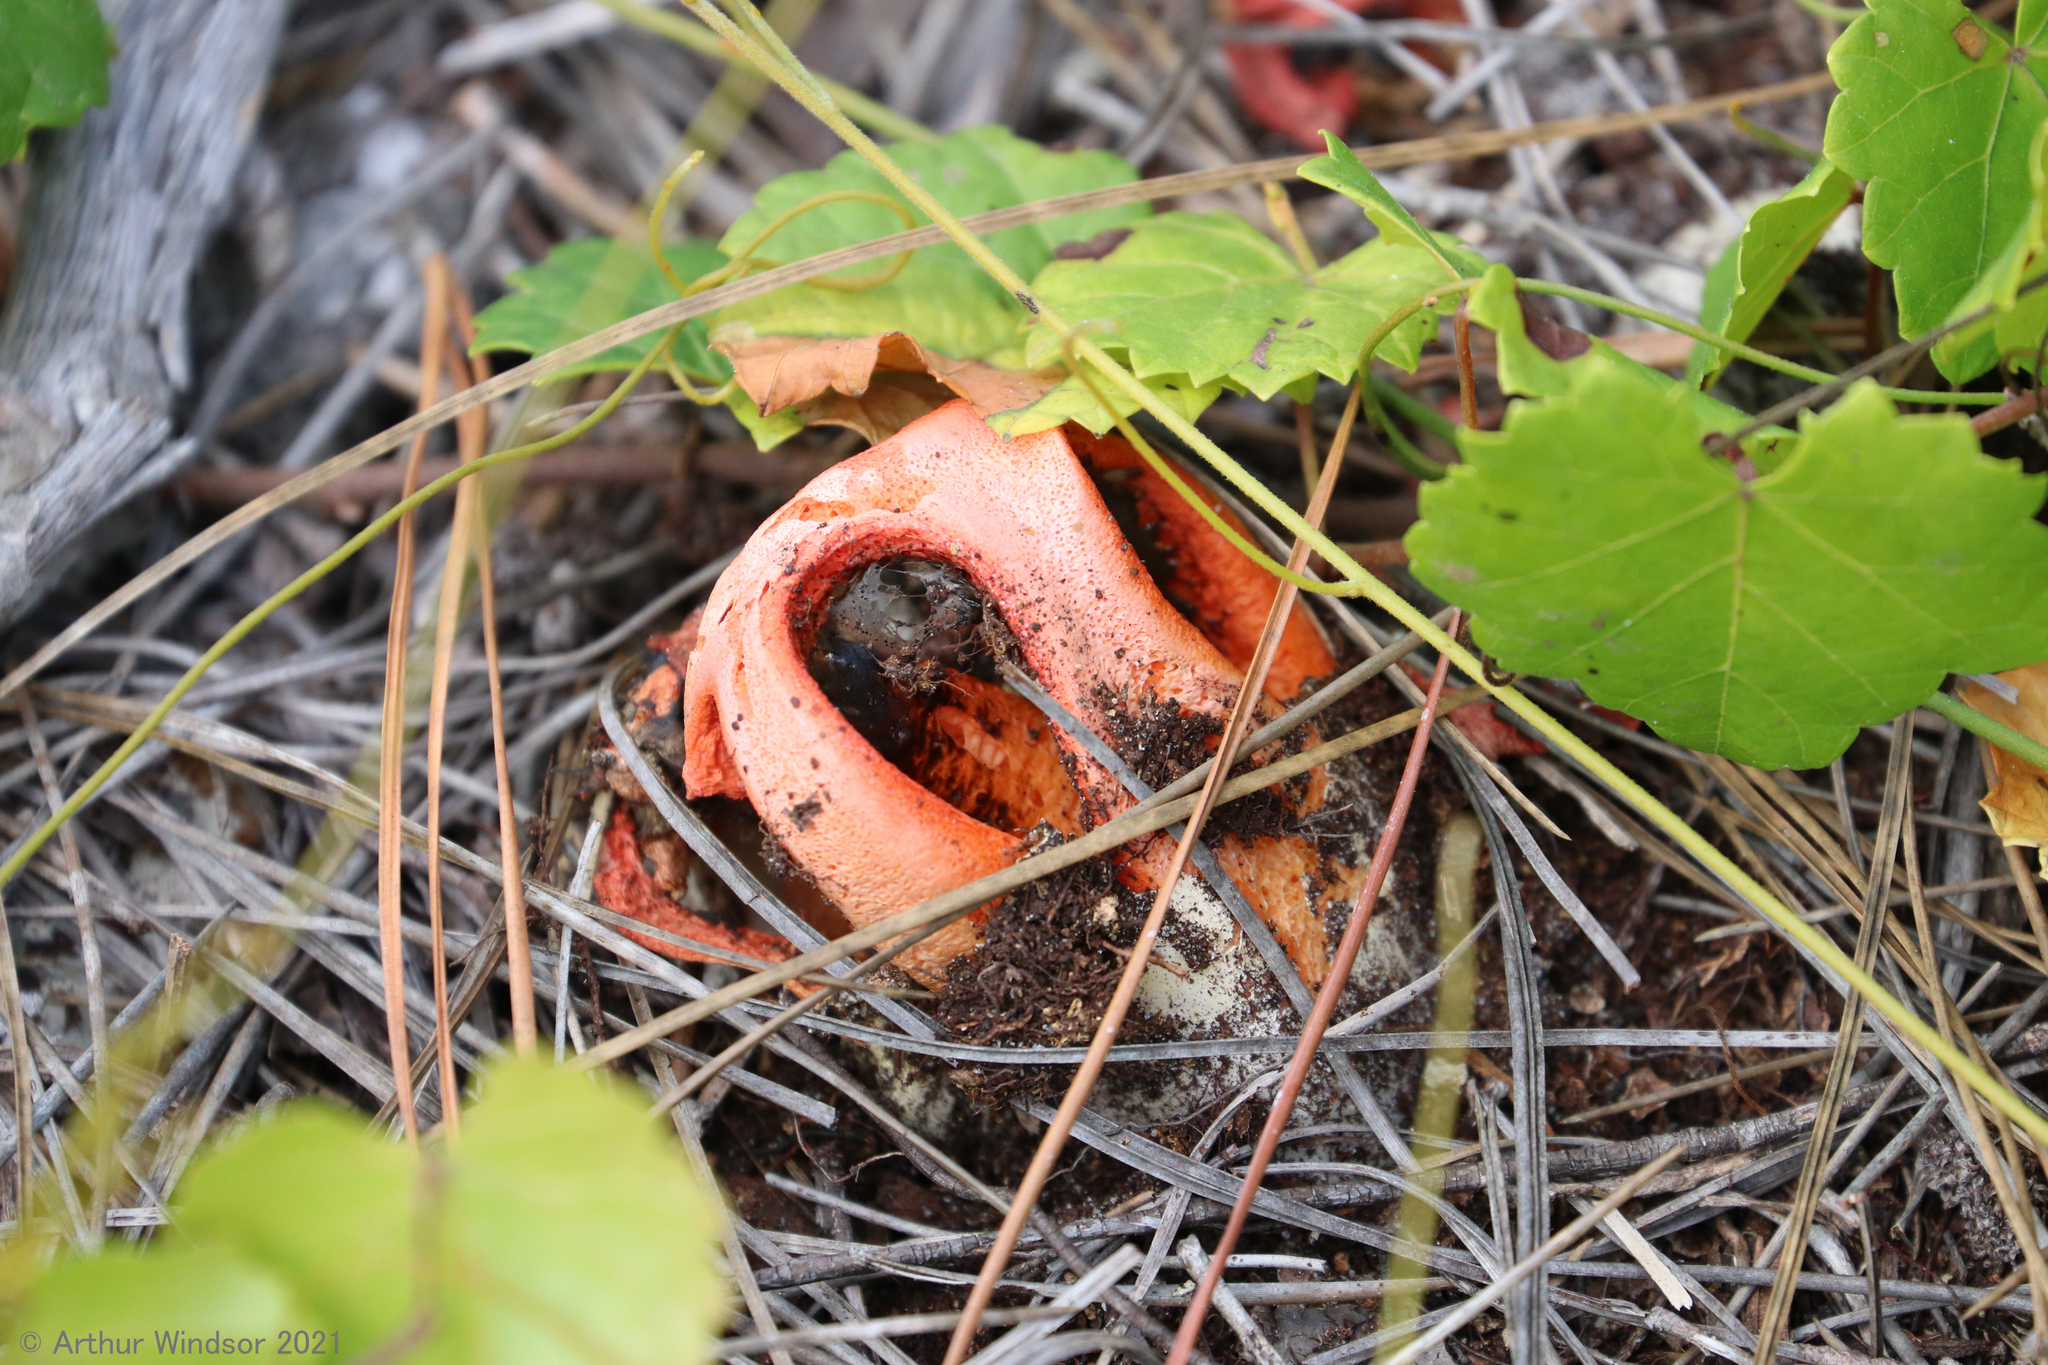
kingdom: Fungi
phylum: Basidiomycota
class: Agaricomycetes
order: Phallales
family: Phallaceae
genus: Clathrus
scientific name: Clathrus columnatus
